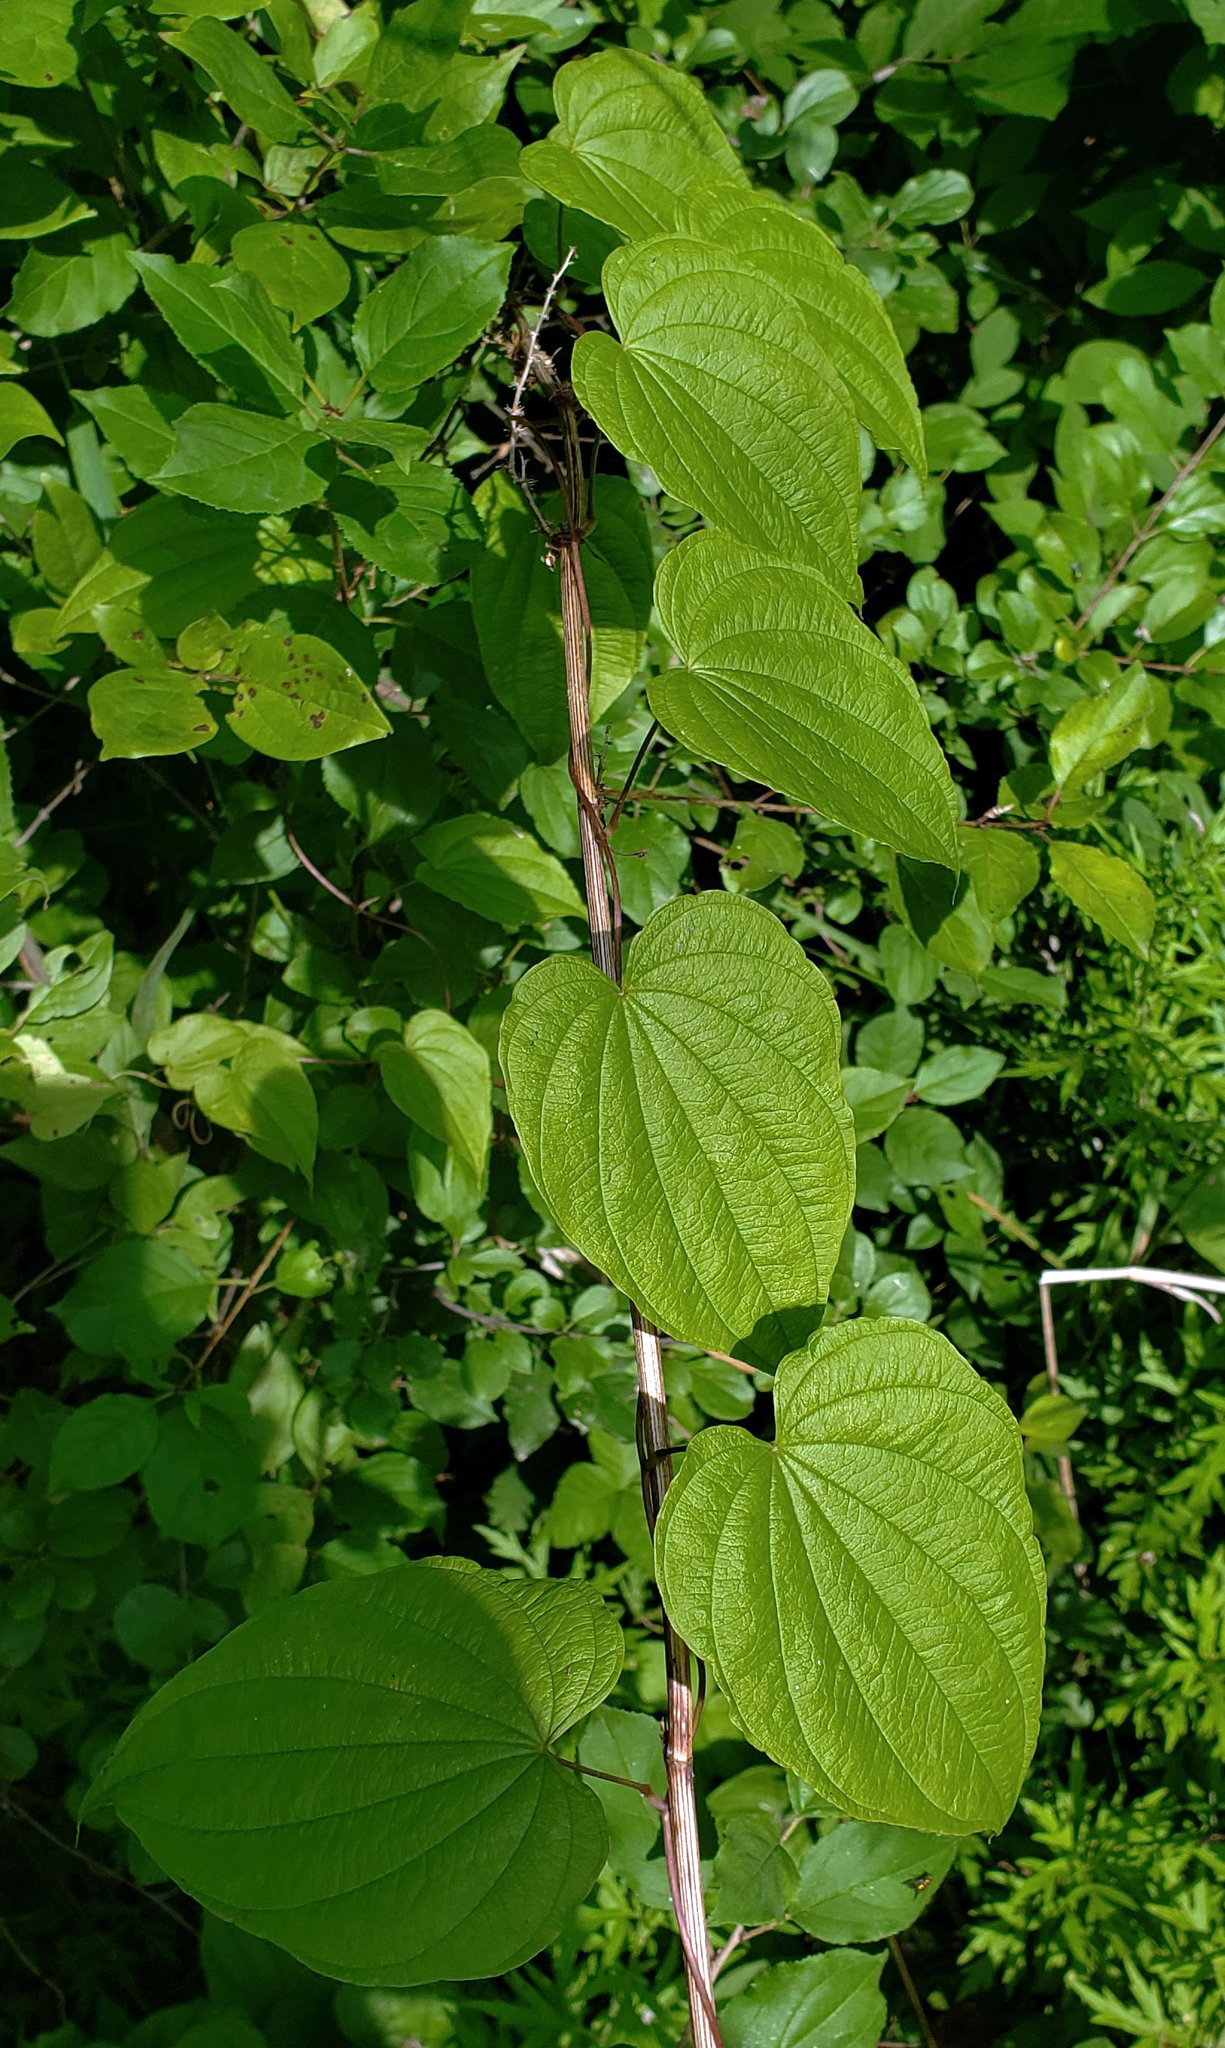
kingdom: Plantae
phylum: Tracheophyta
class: Liliopsida
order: Dioscoreales
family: Dioscoreaceae
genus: Dioscorea
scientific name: Dioscorea villosa
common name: Wild yam
